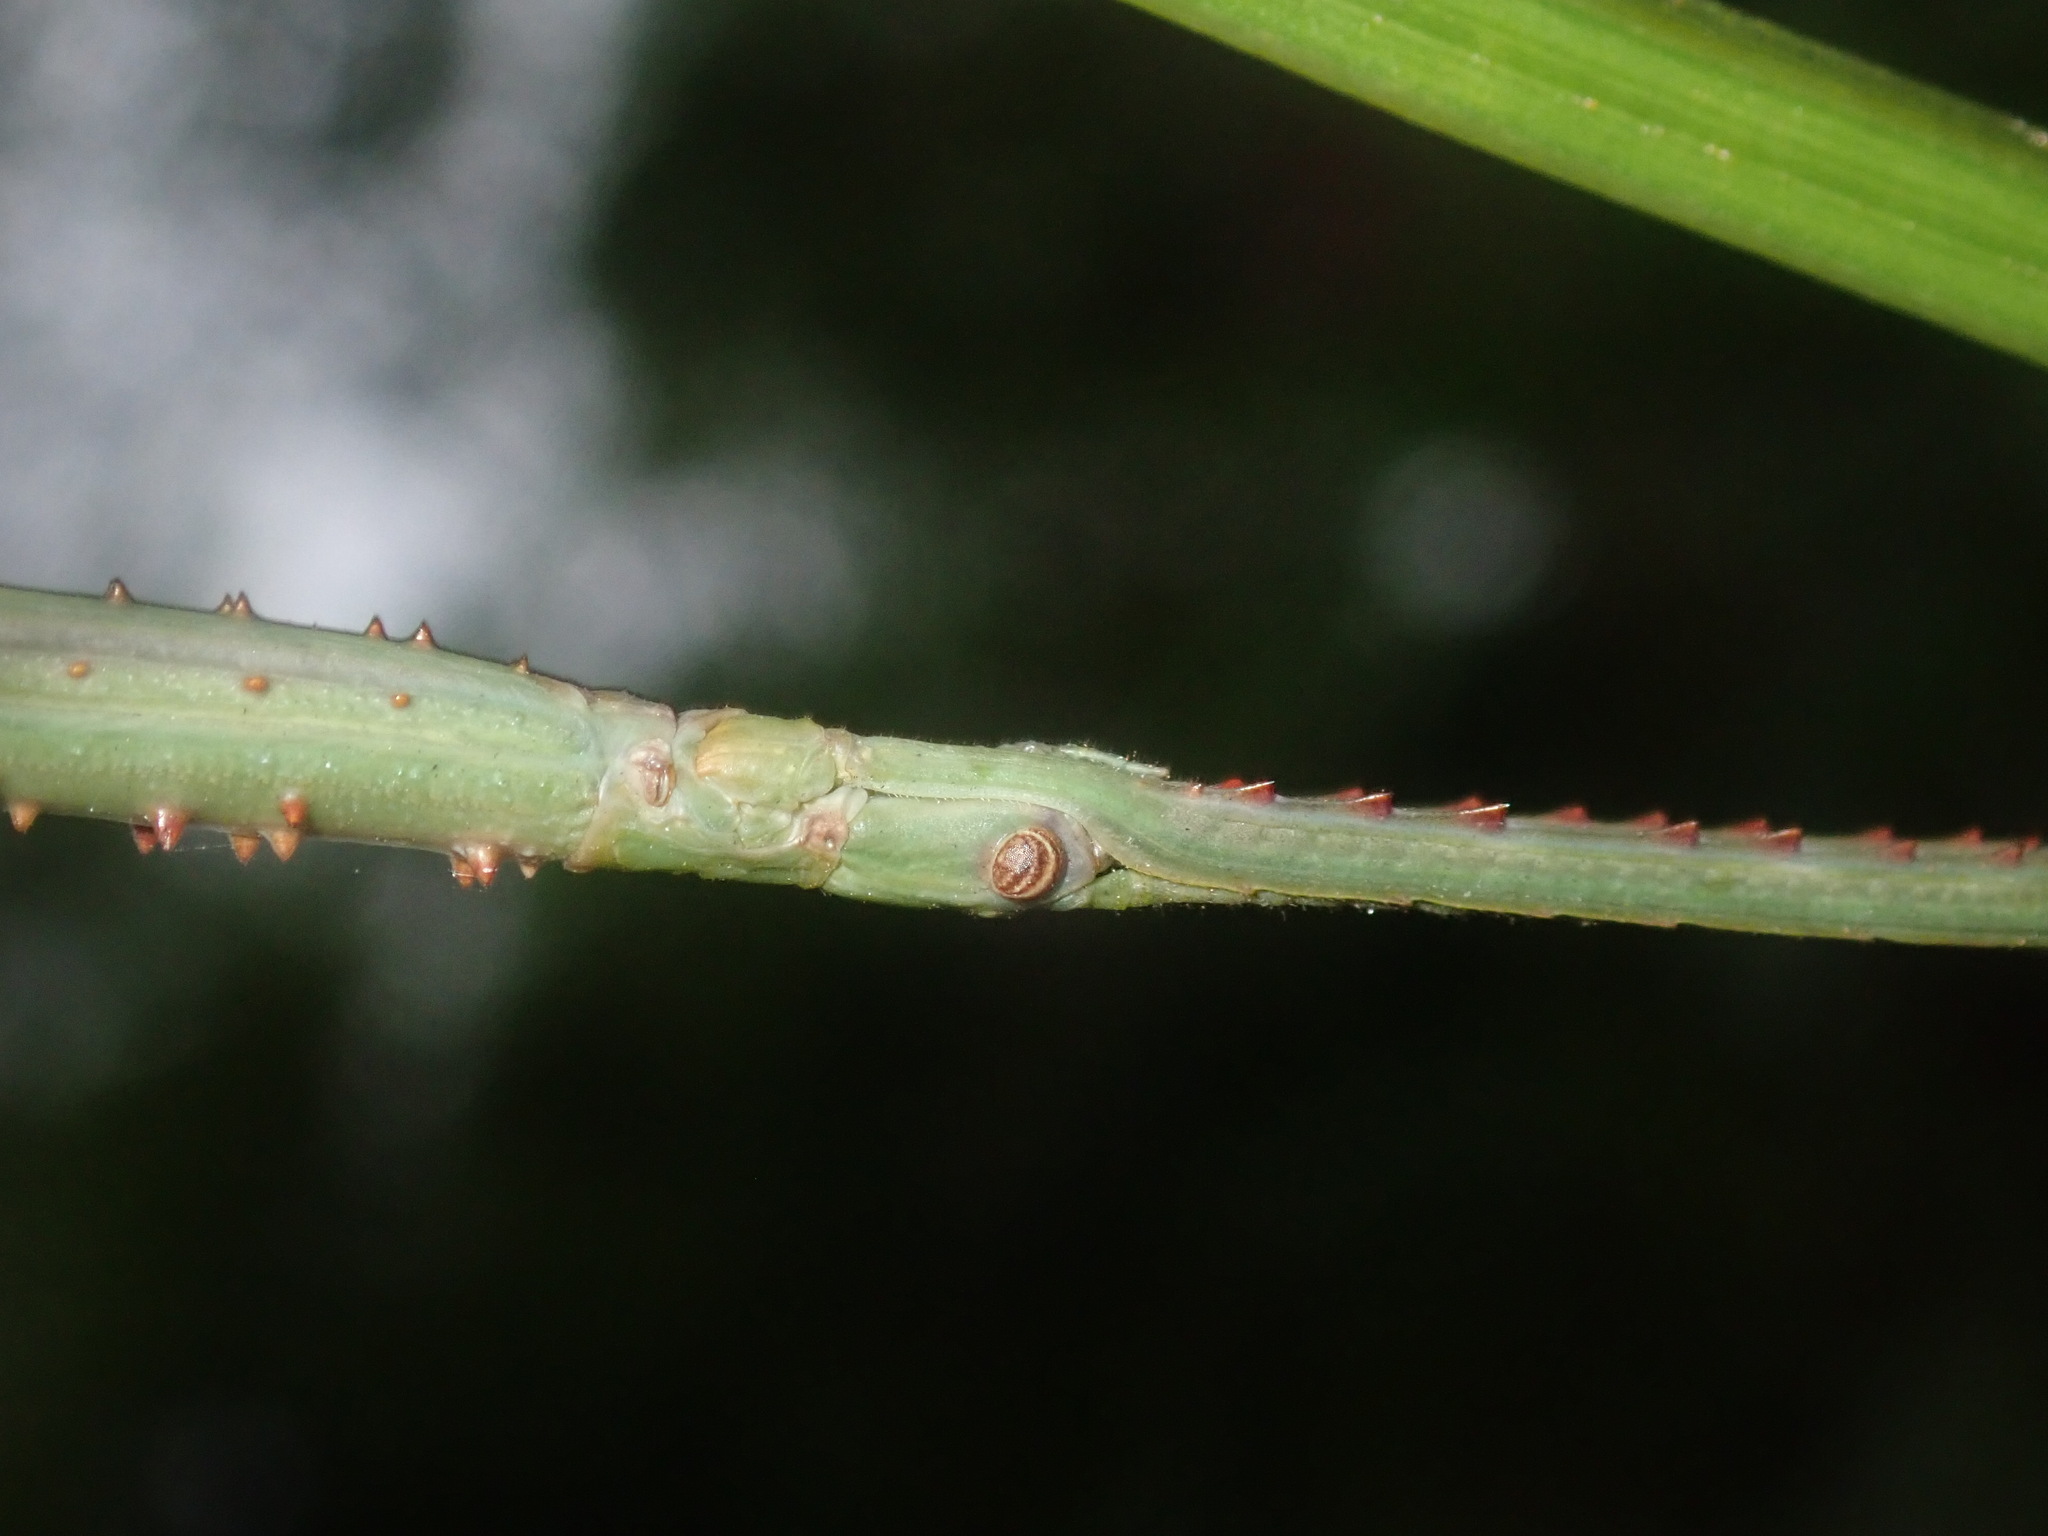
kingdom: Animalia
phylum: Arthropoda
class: Insecta
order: Phasmida
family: Phasmatidae
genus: Acrophylla
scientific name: Acrophylla titan
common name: Titan stick insect
